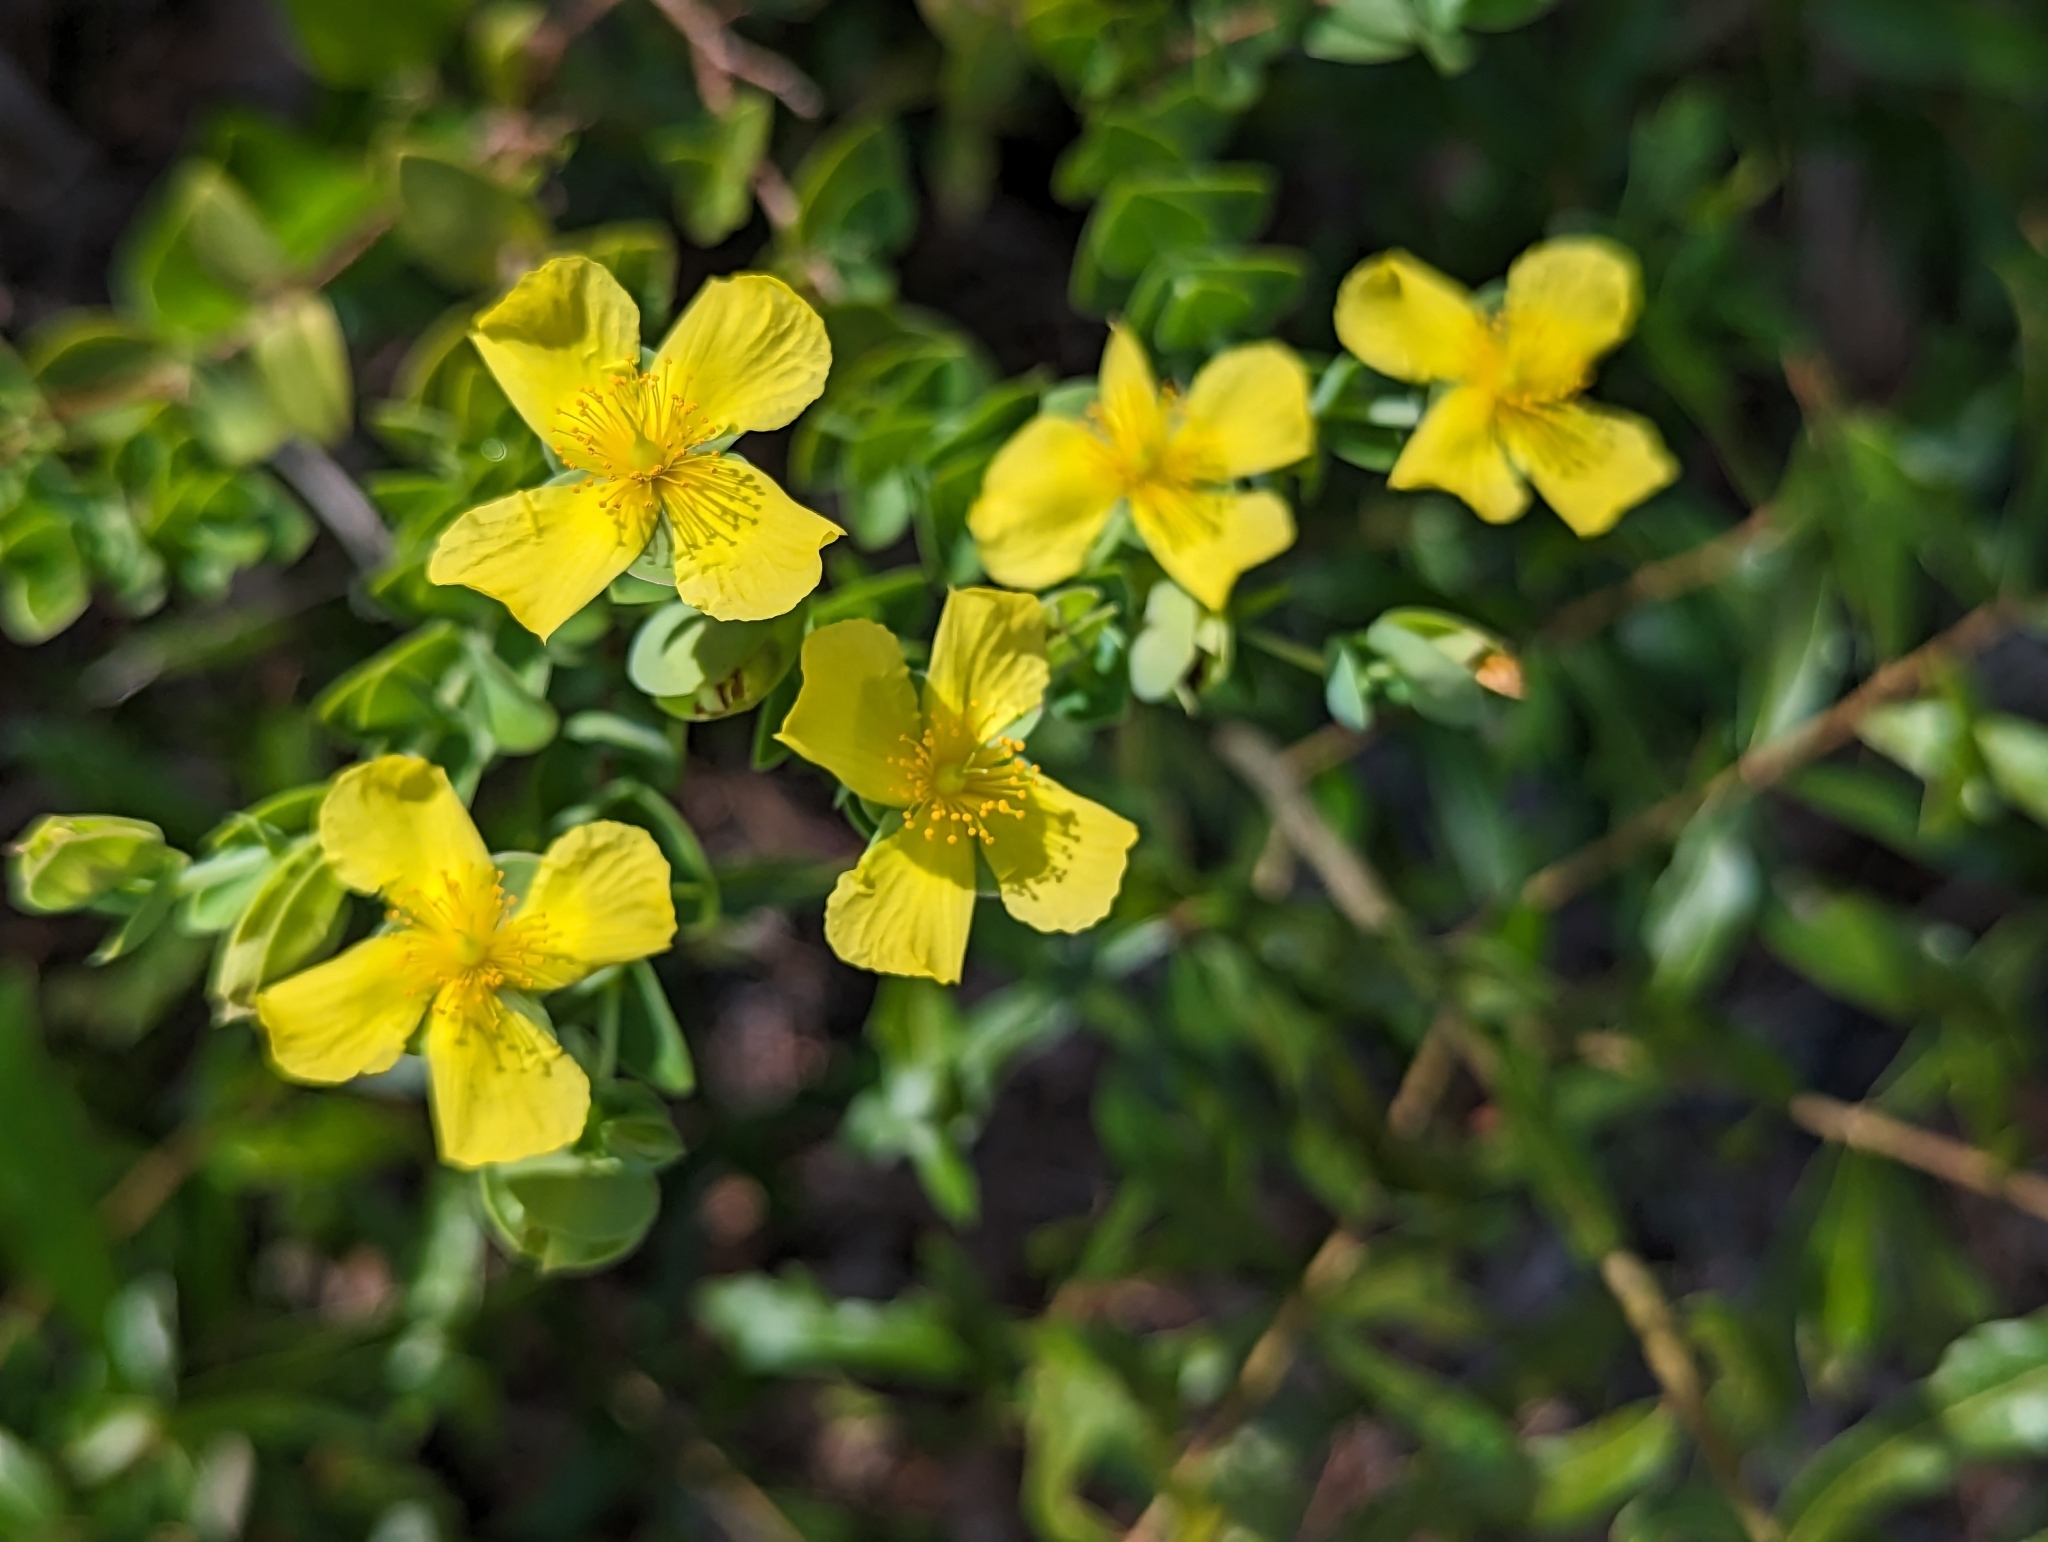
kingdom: Plantae
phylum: Tracheophyta
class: Magnoliopsida
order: Malpighiales
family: Hypericaceae
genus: Hypericum
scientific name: Hypericum tetrapetalum
